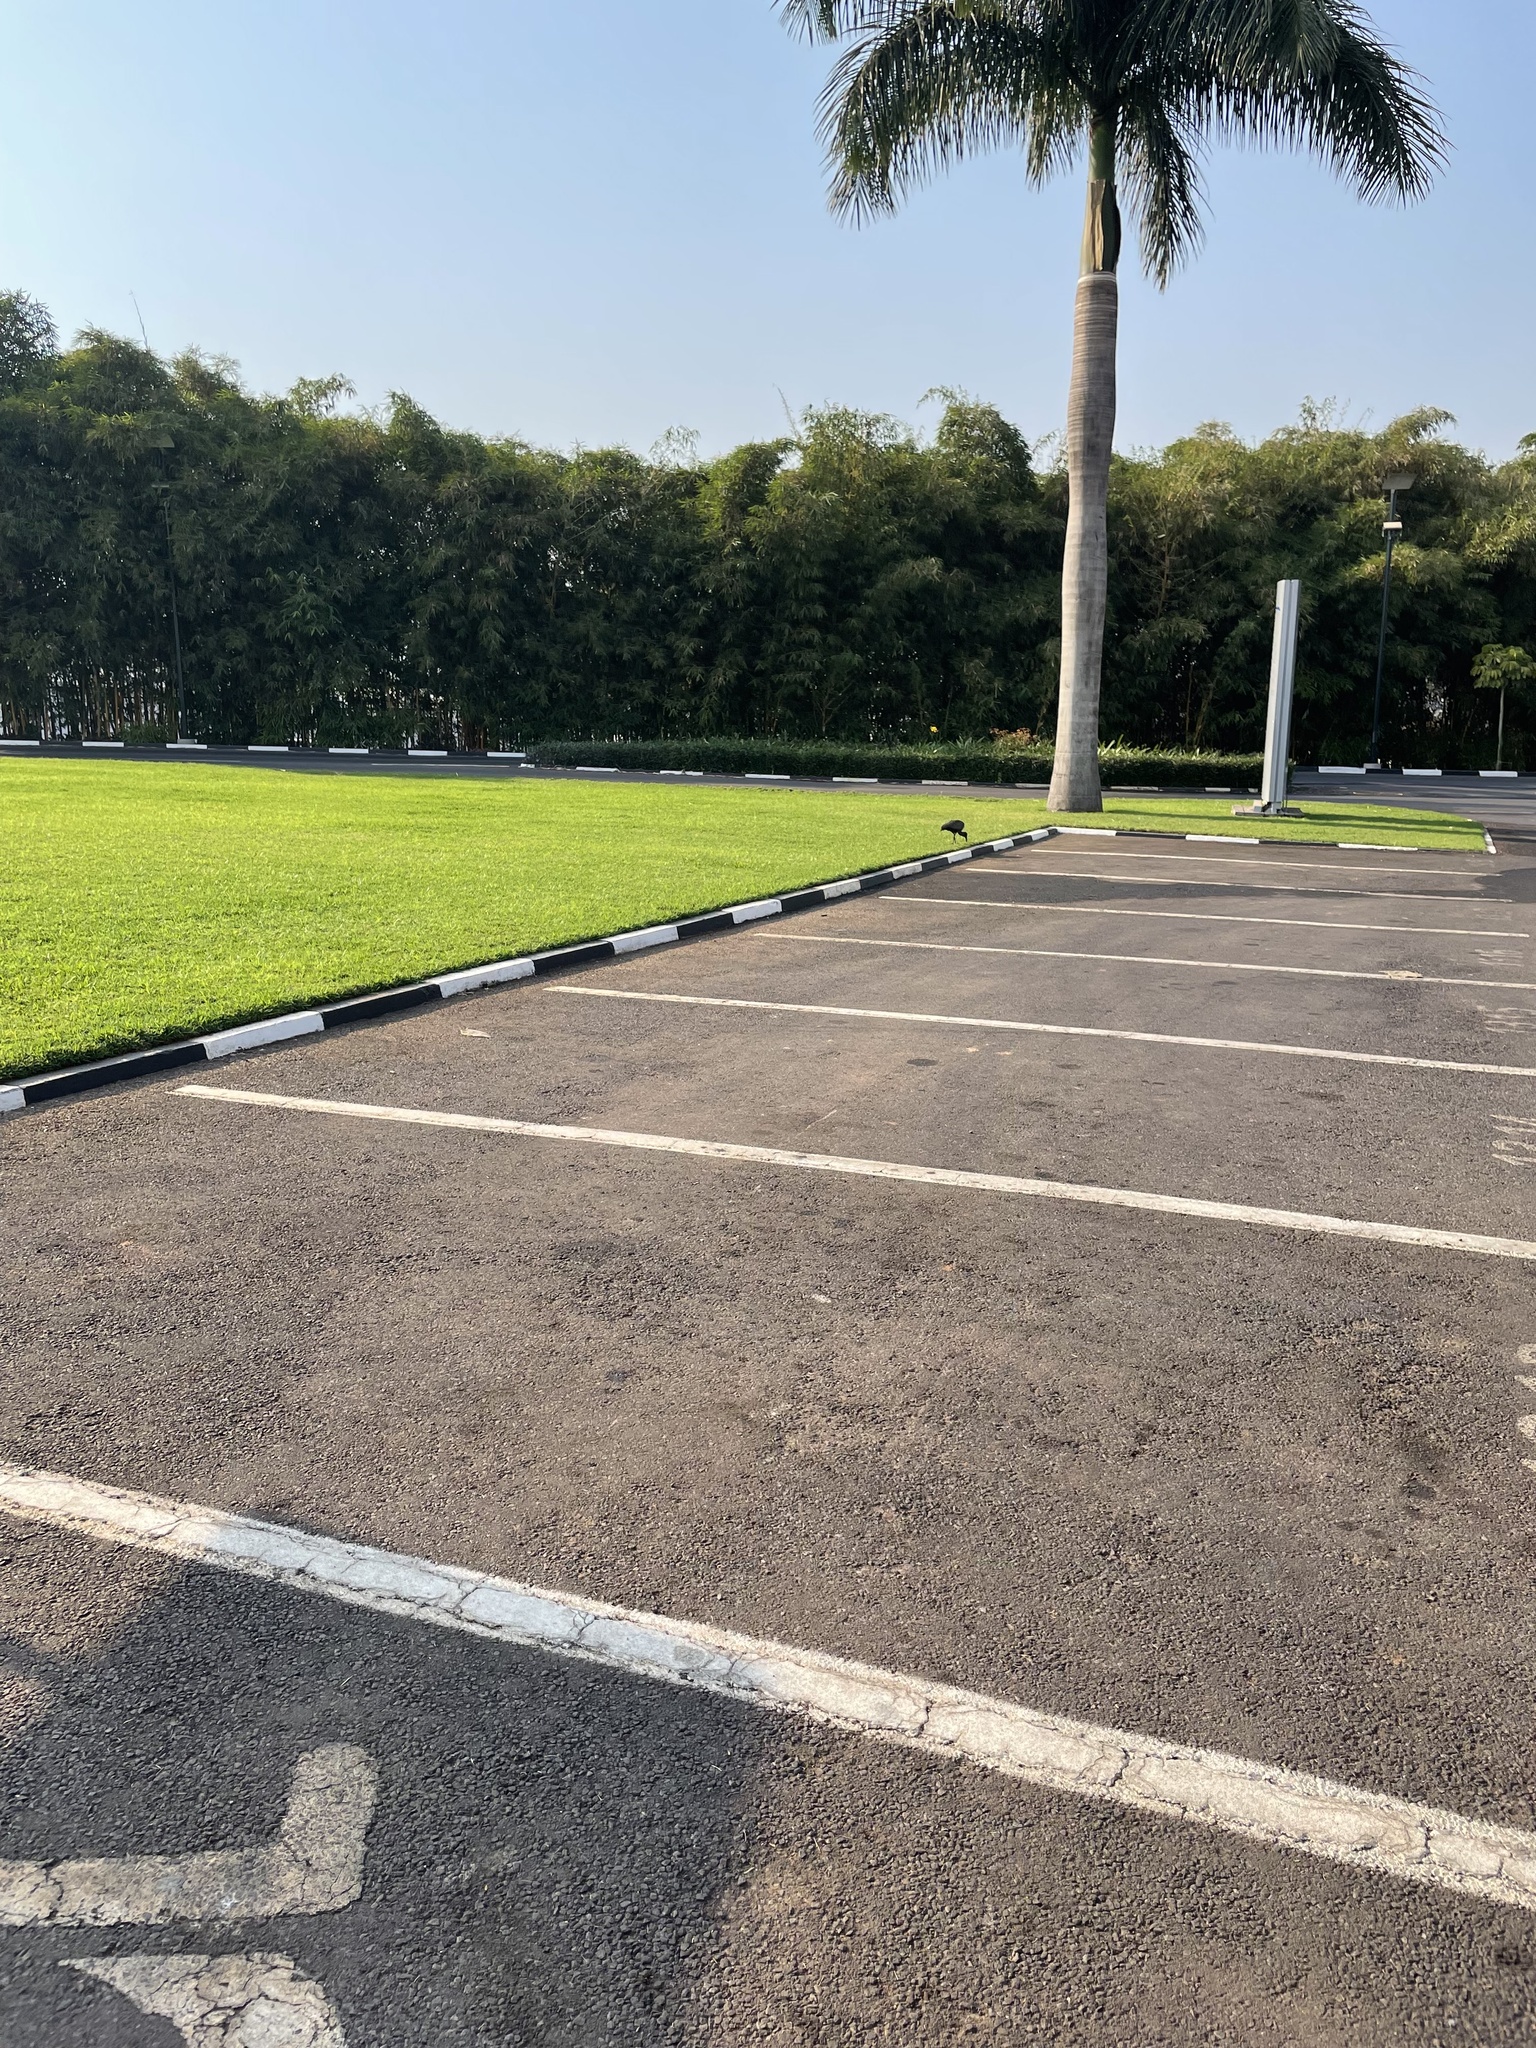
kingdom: Animalia
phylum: Chordata
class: Aves
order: Pelecaniformes
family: Threskiornithidae
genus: Bostrychia
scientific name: Bostrychia hagedash
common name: Hadada ibis
